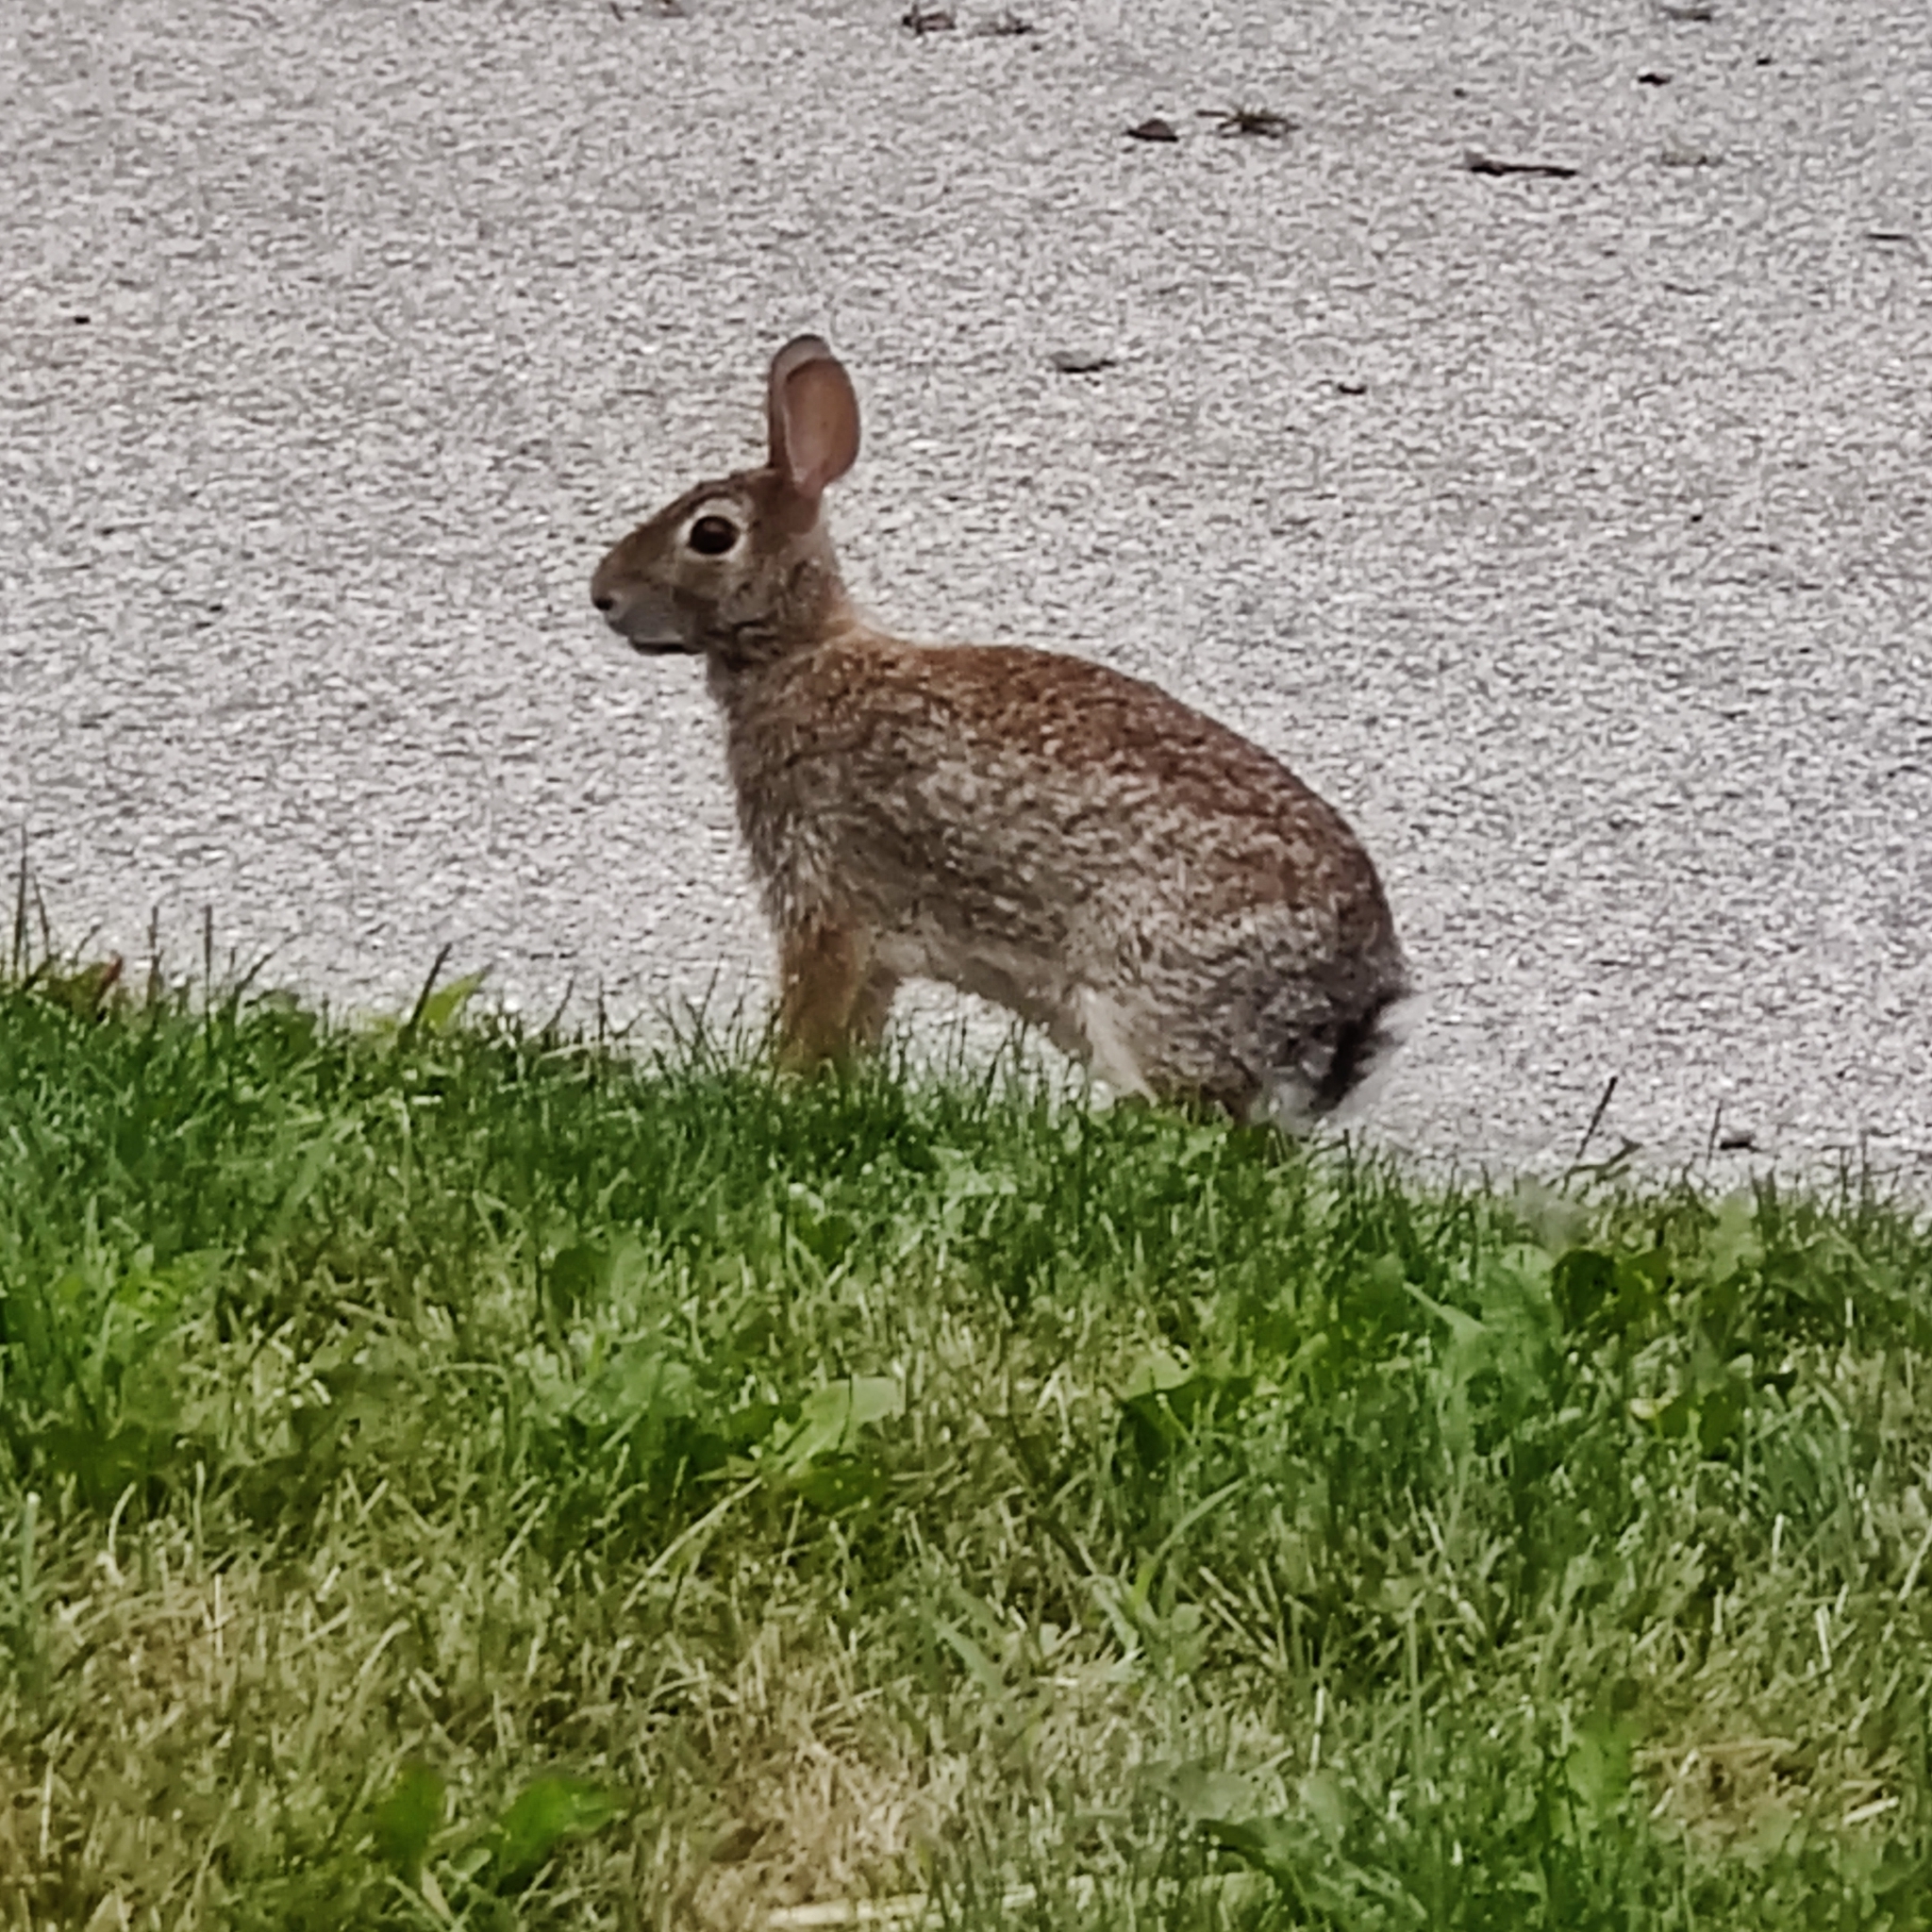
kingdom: Animalia
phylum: Chordata
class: Mammalia
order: Lagomorpha
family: Leporidae
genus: Sylvilagus
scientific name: Sylvilagus floridanus
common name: Eastern cottontail
